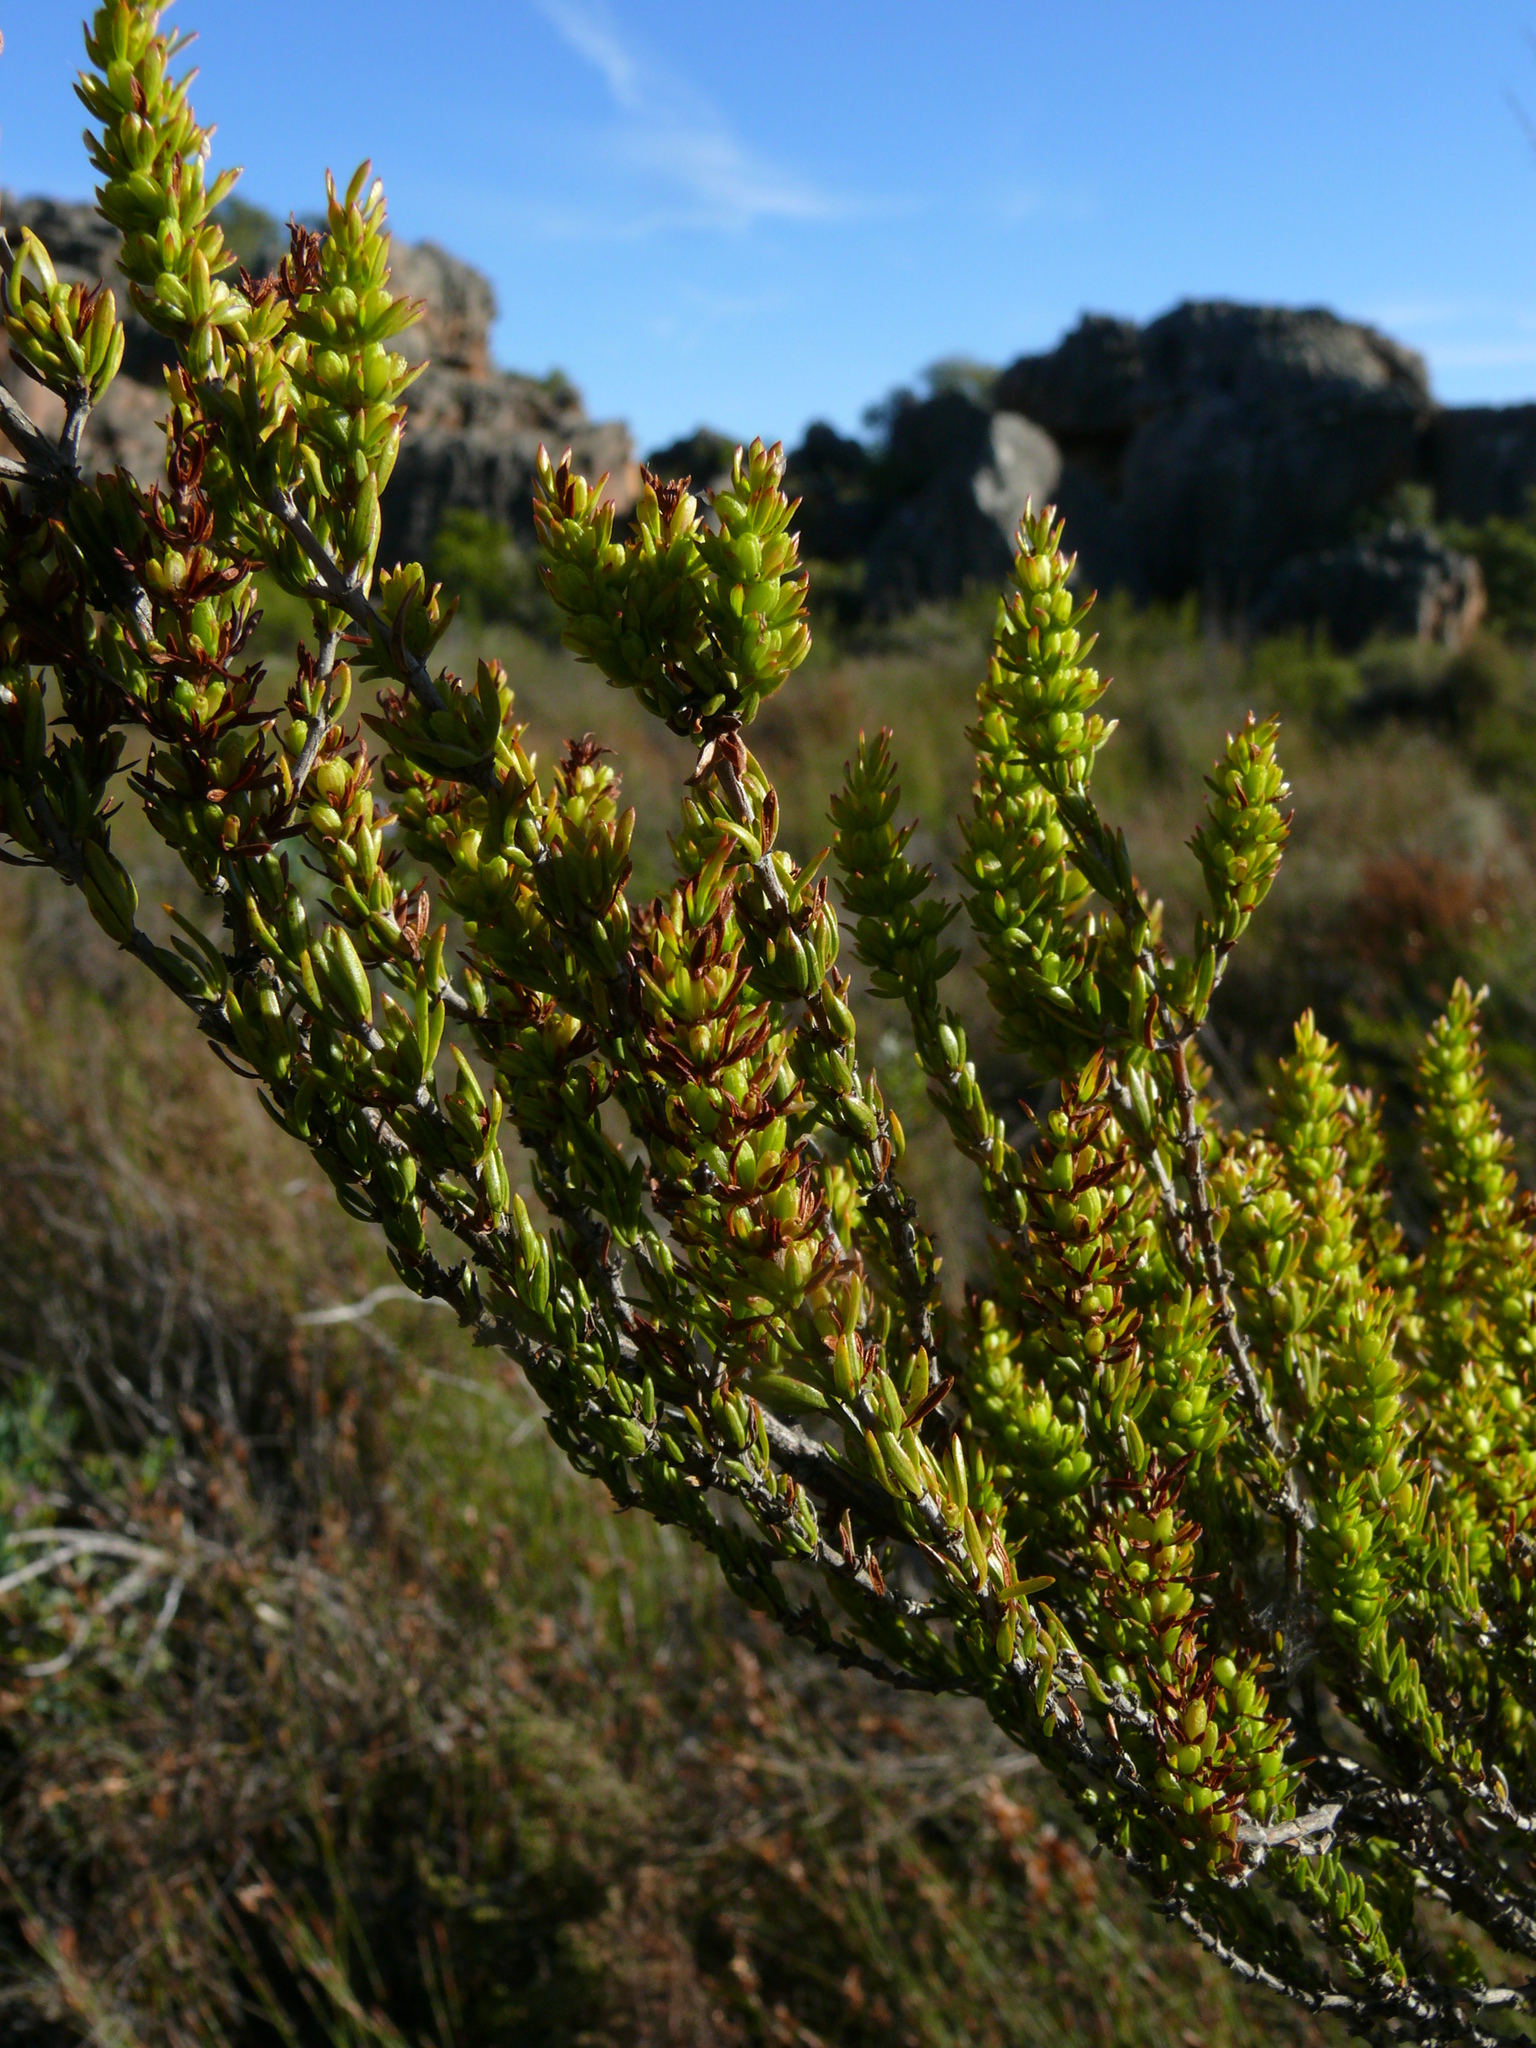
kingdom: Plantae
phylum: Tracheophyta
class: Magnoliopsida
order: Gentianales
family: Rubiaceae
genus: Anthospermum
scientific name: Anthospermum aethiopicum
